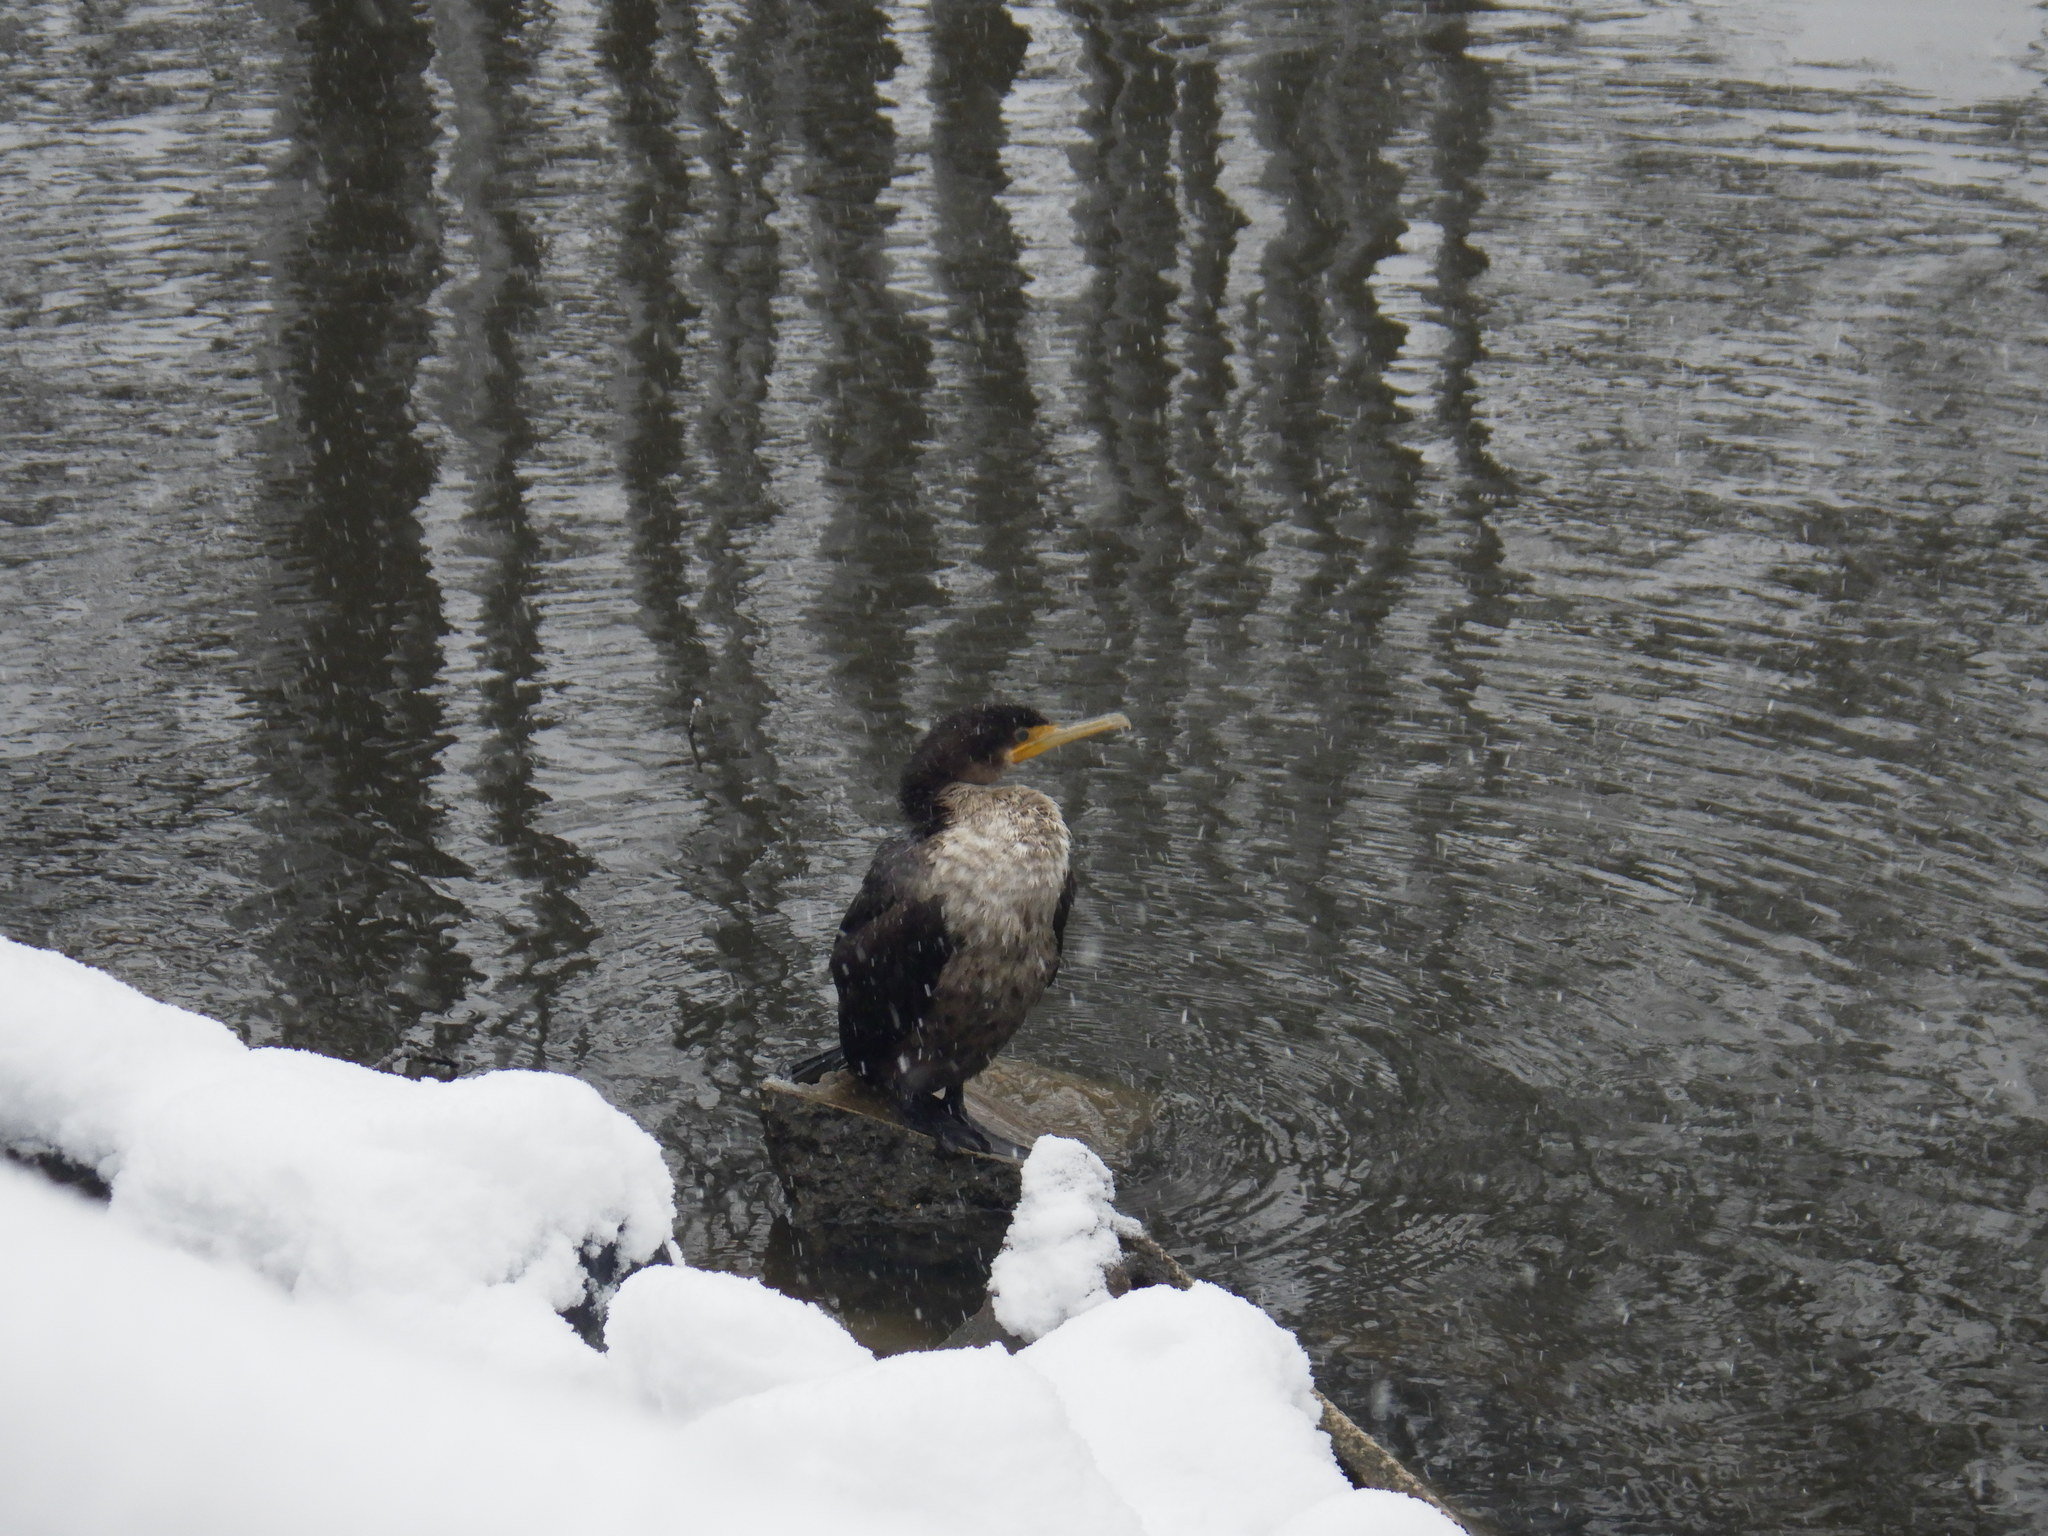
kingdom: Animalia
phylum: Chordata
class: Aves
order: Suliformes
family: Phalacrocoracidae
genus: Phalacrocorax
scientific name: Phalacrocorax auritus
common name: Double-crested cormorant
